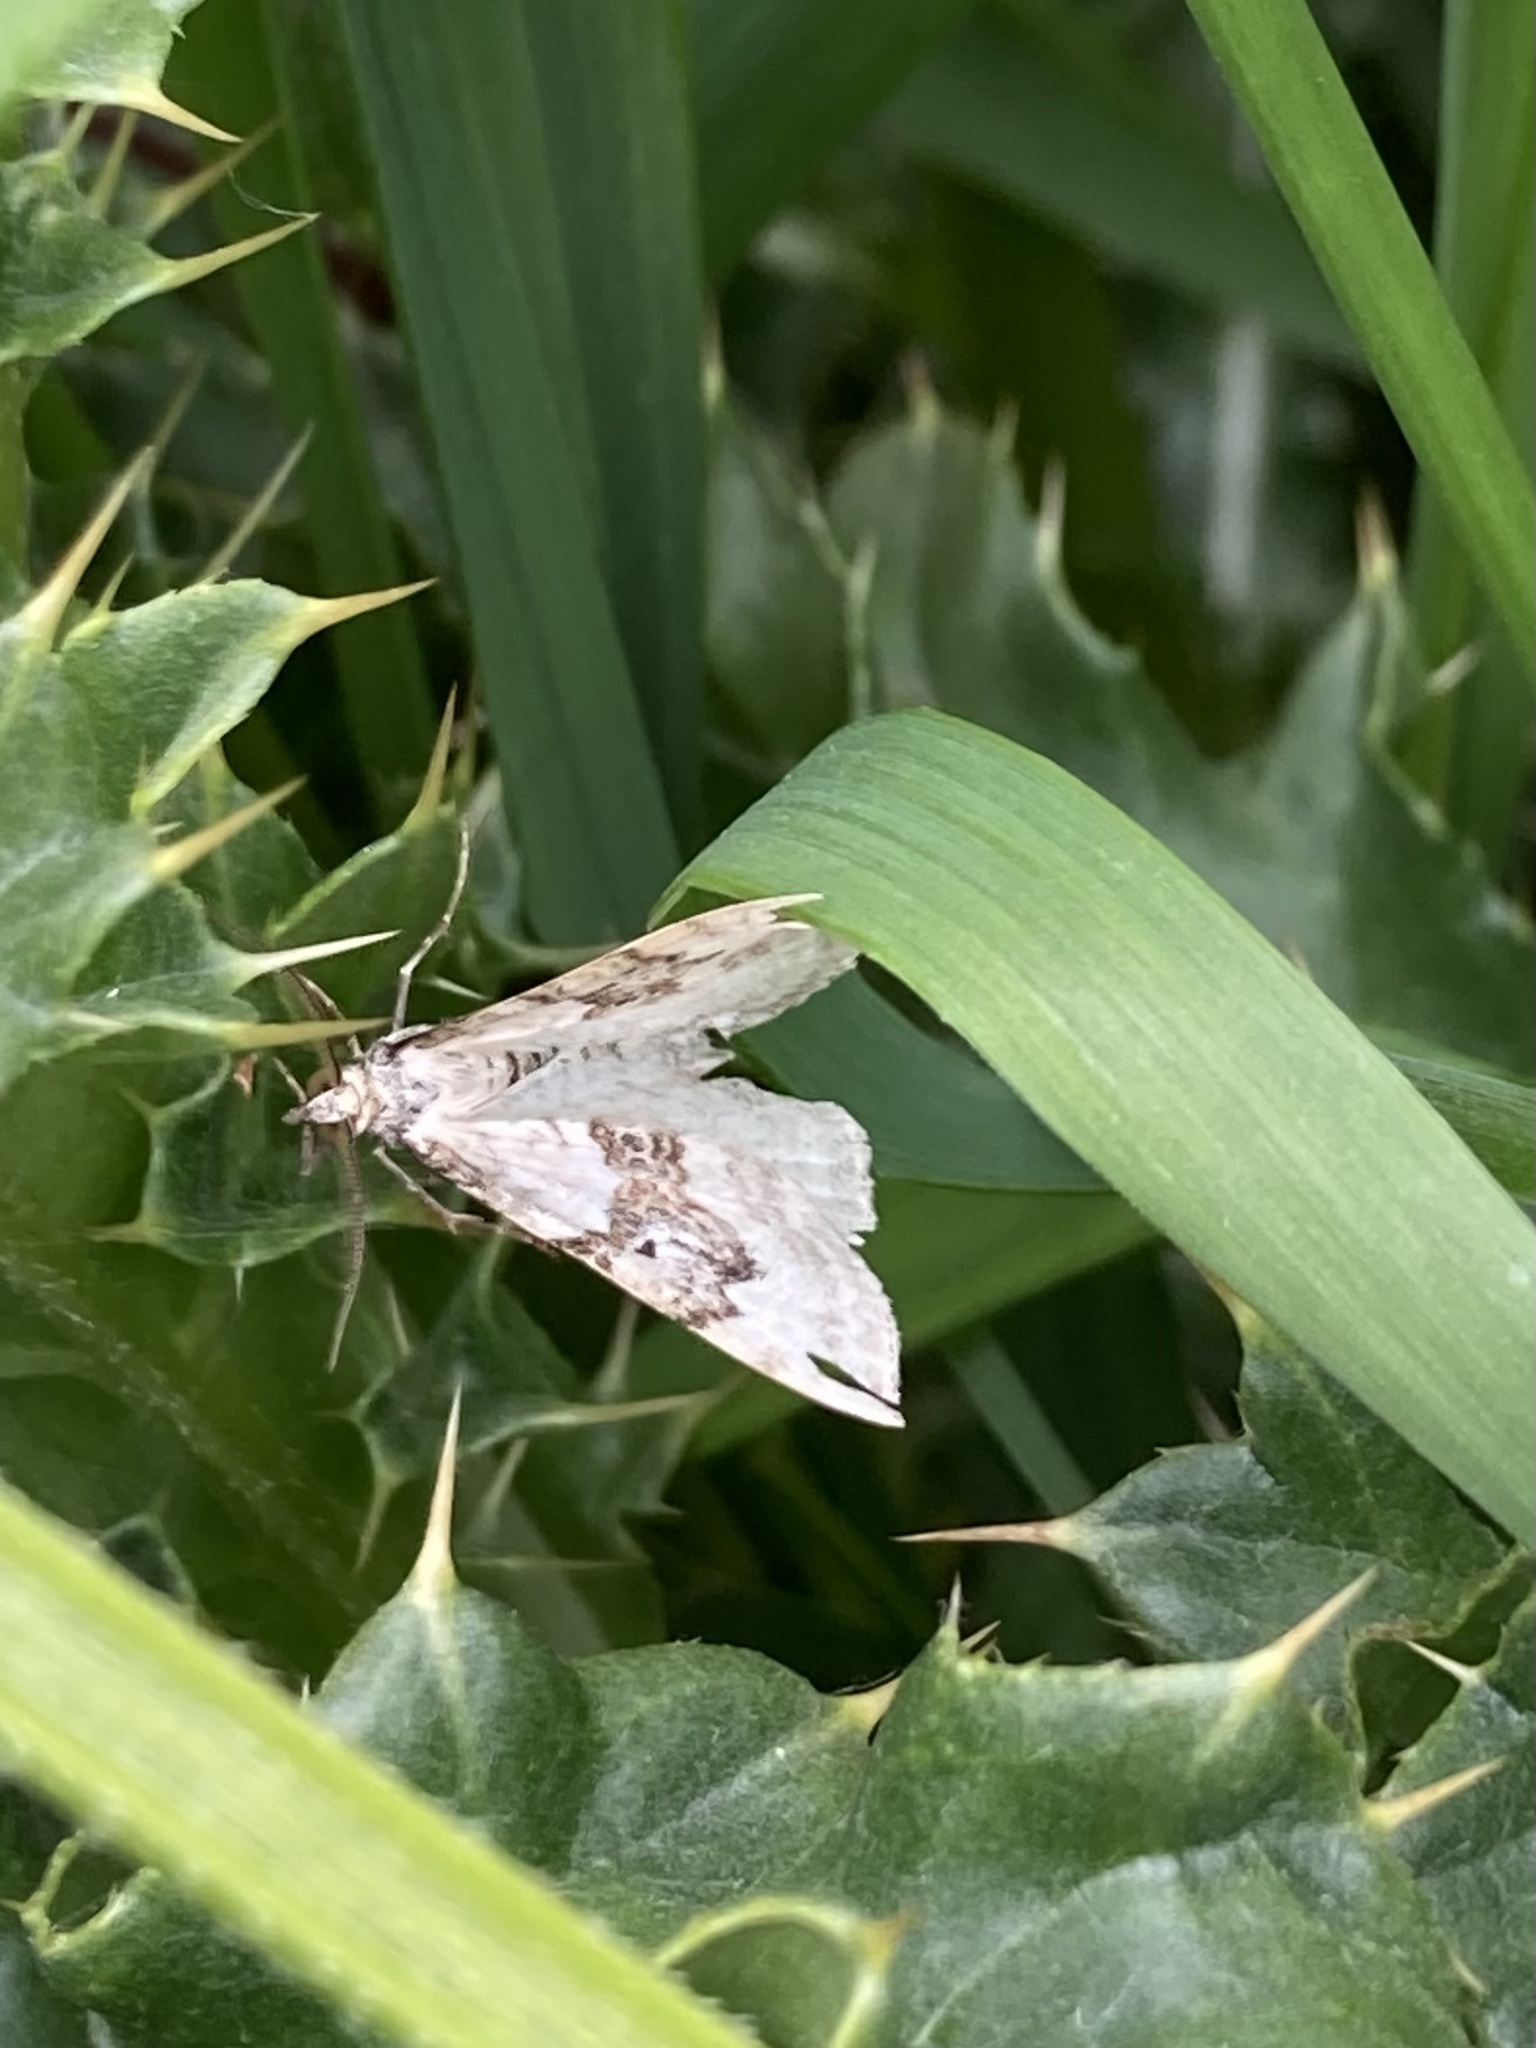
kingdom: Animalia
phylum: Arthropoda
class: Insecta
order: Lepidoptera
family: Geometridae
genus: Xanthorhoe
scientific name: Xanthorhoe montanata
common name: Silver-ground carpet
